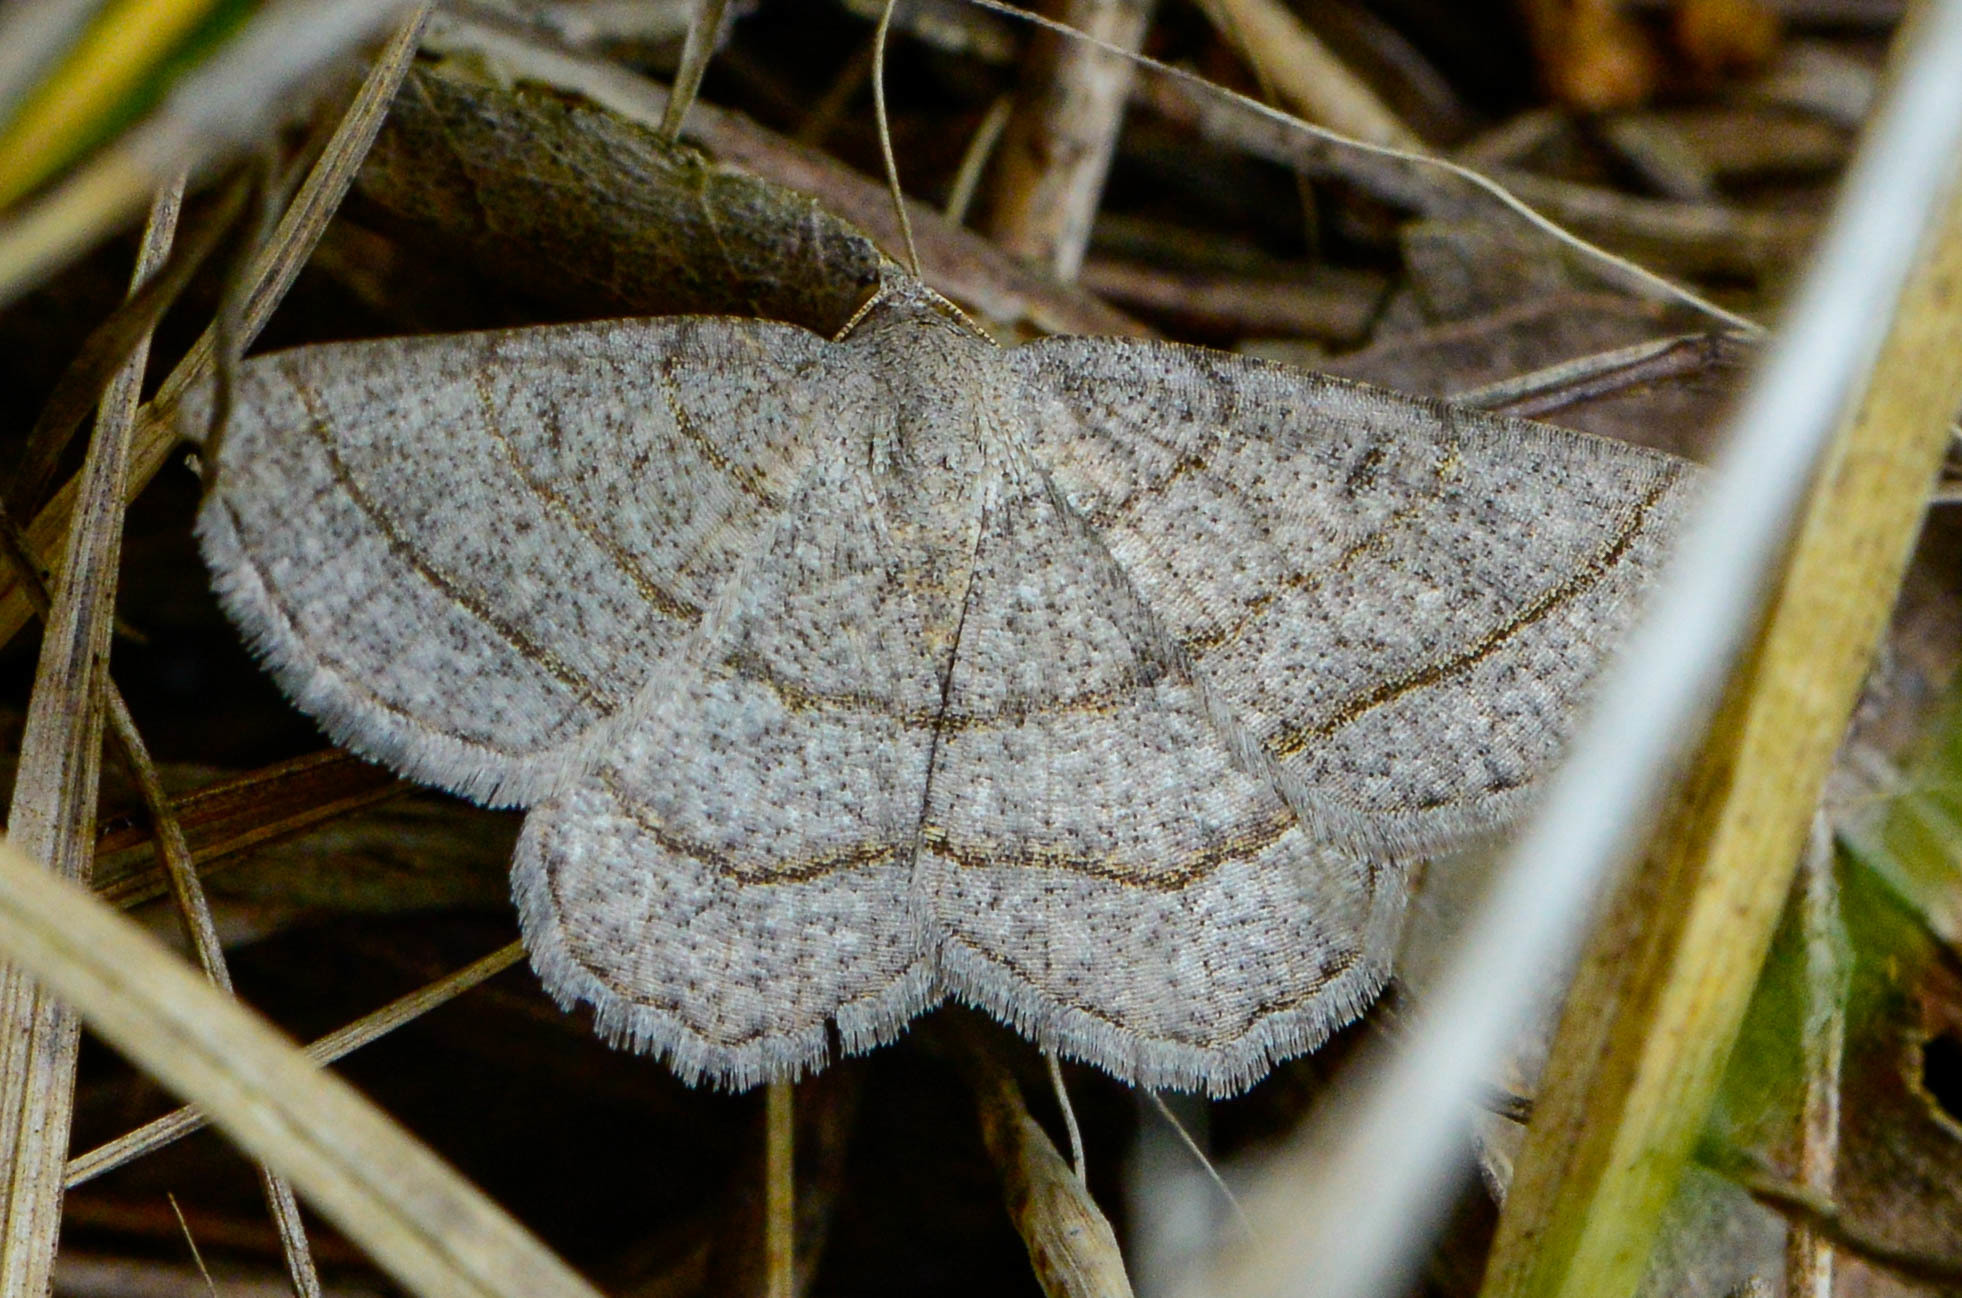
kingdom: Animalia
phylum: Arthropoda
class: Insecta
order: Lepidoptera
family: Geometridae
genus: Digrammia
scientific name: Digrammia ordinata
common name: Amorpha angle
